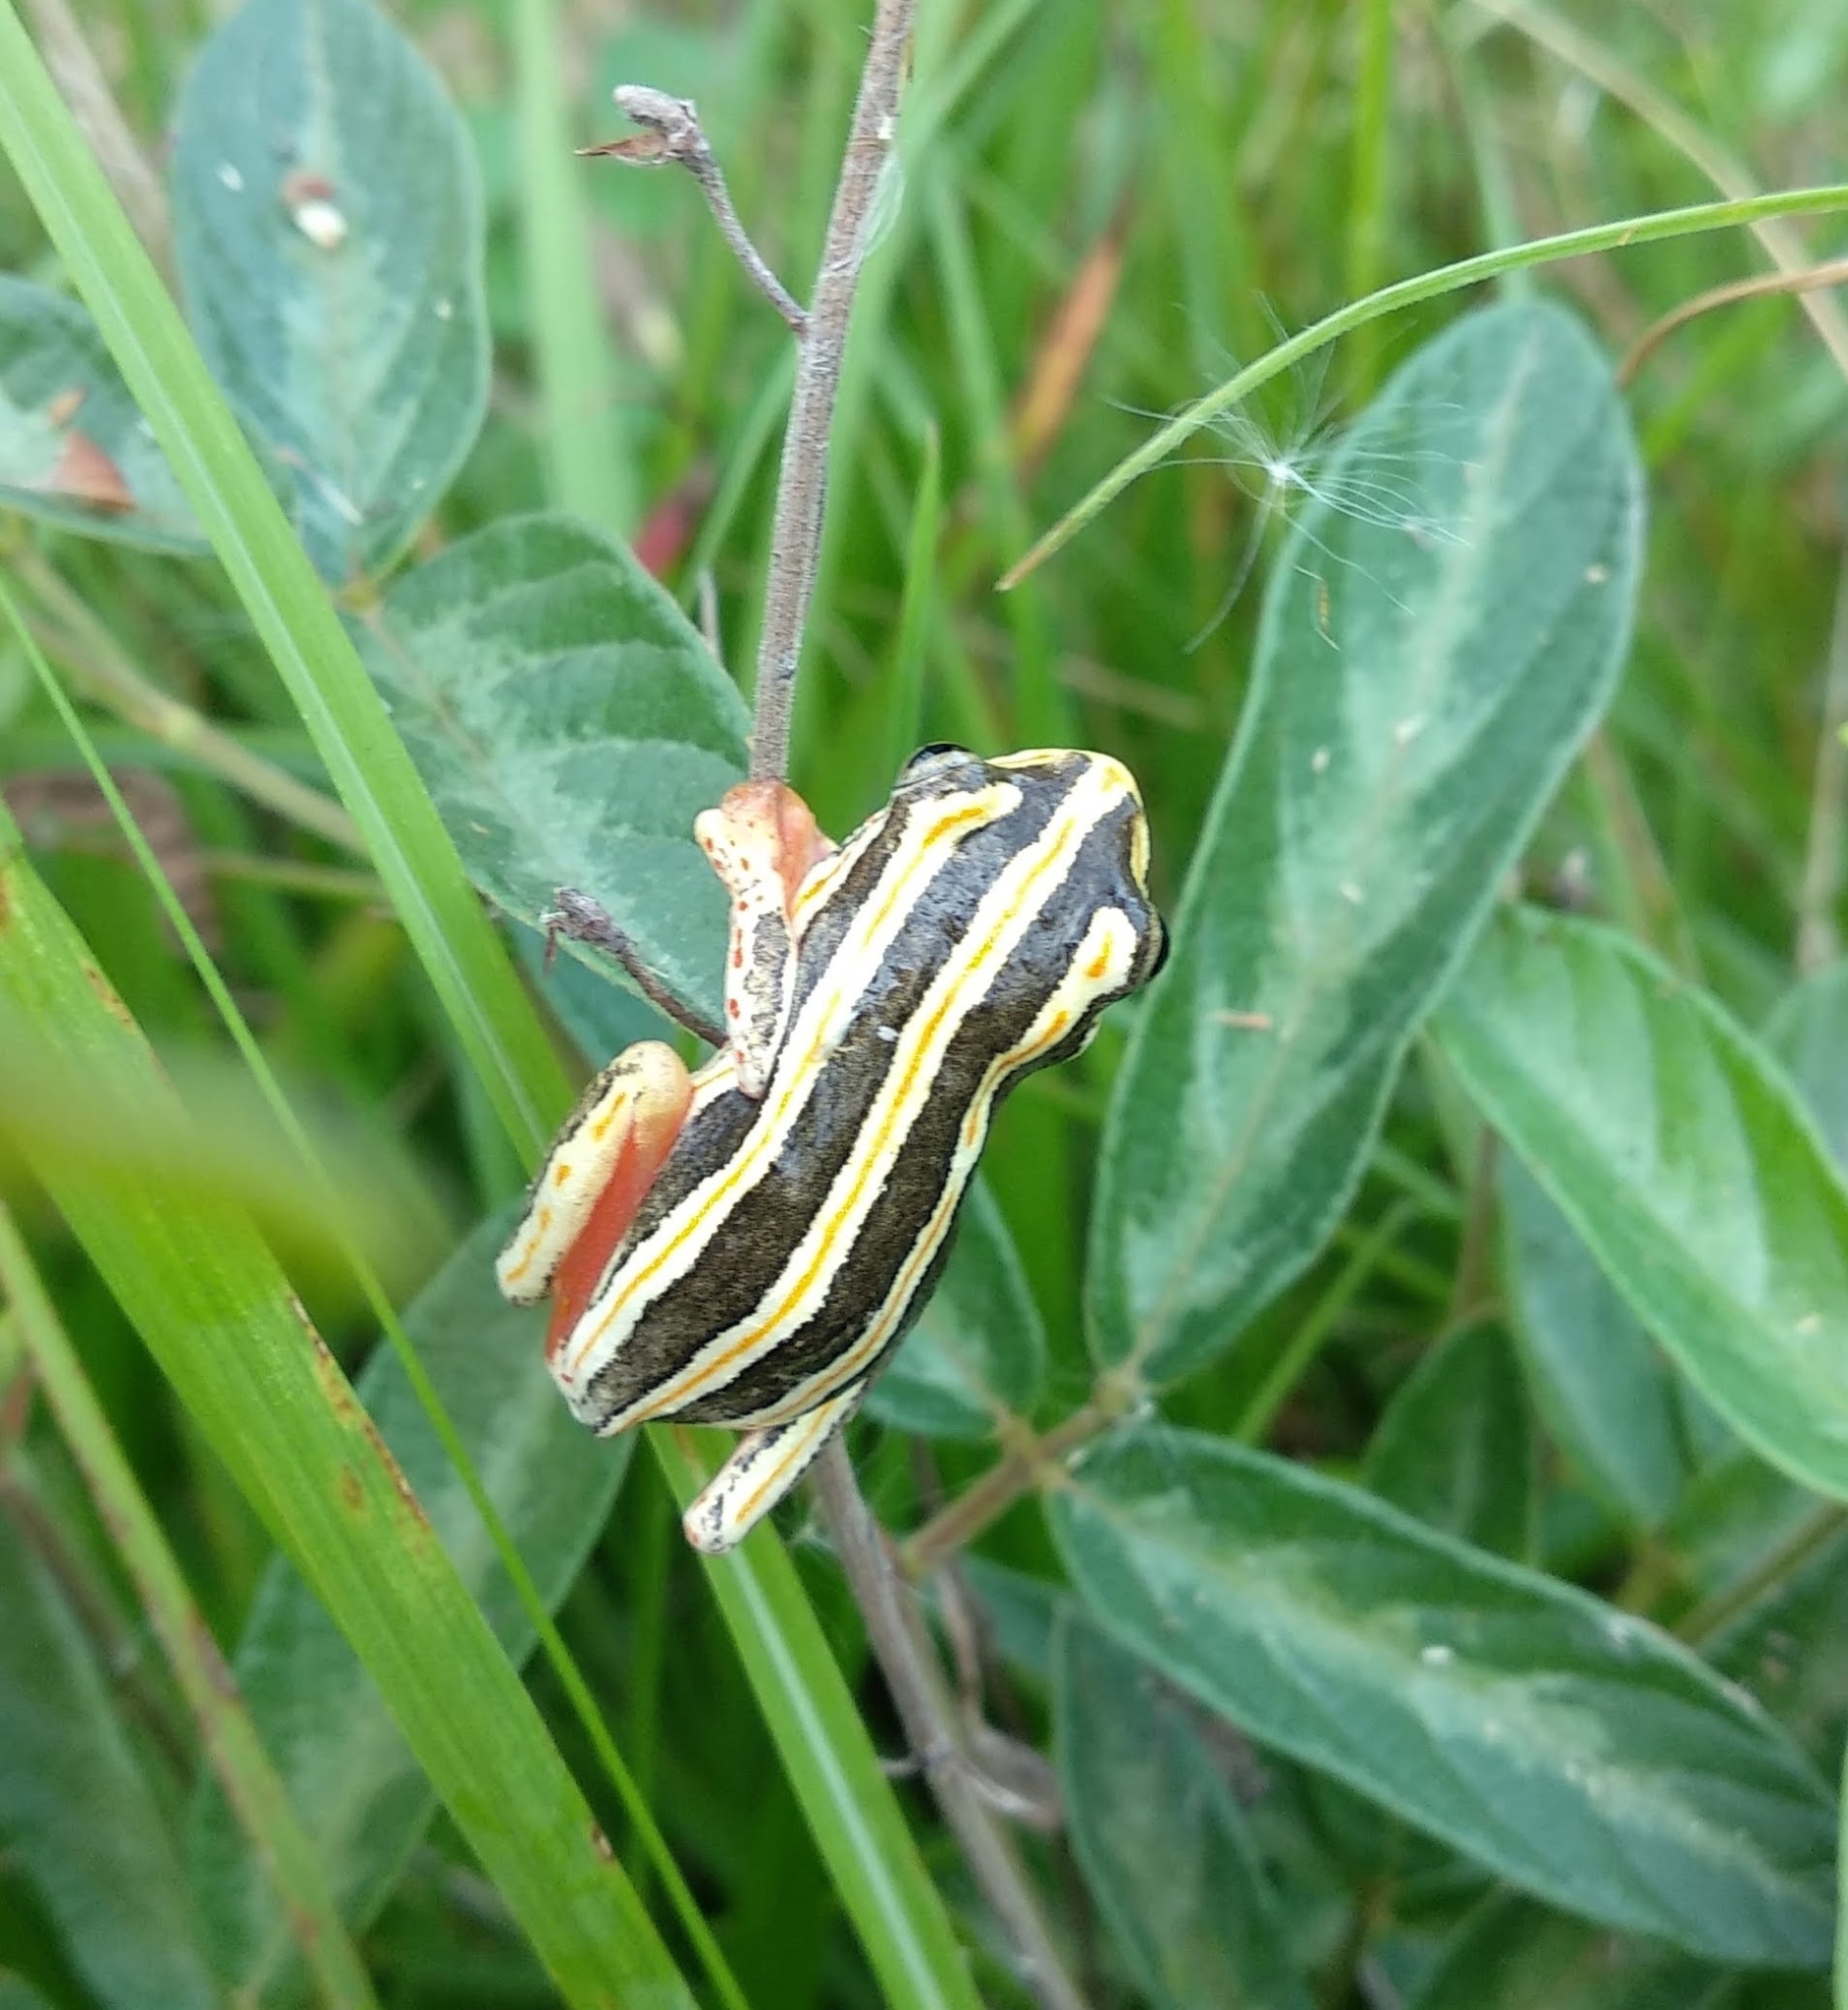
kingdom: Animalia
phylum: Chordata
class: Amphibia
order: Anura
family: Hyperoliidae
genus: Hyperolius
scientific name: Hyperolius marmoratus
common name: Painted reed frog
